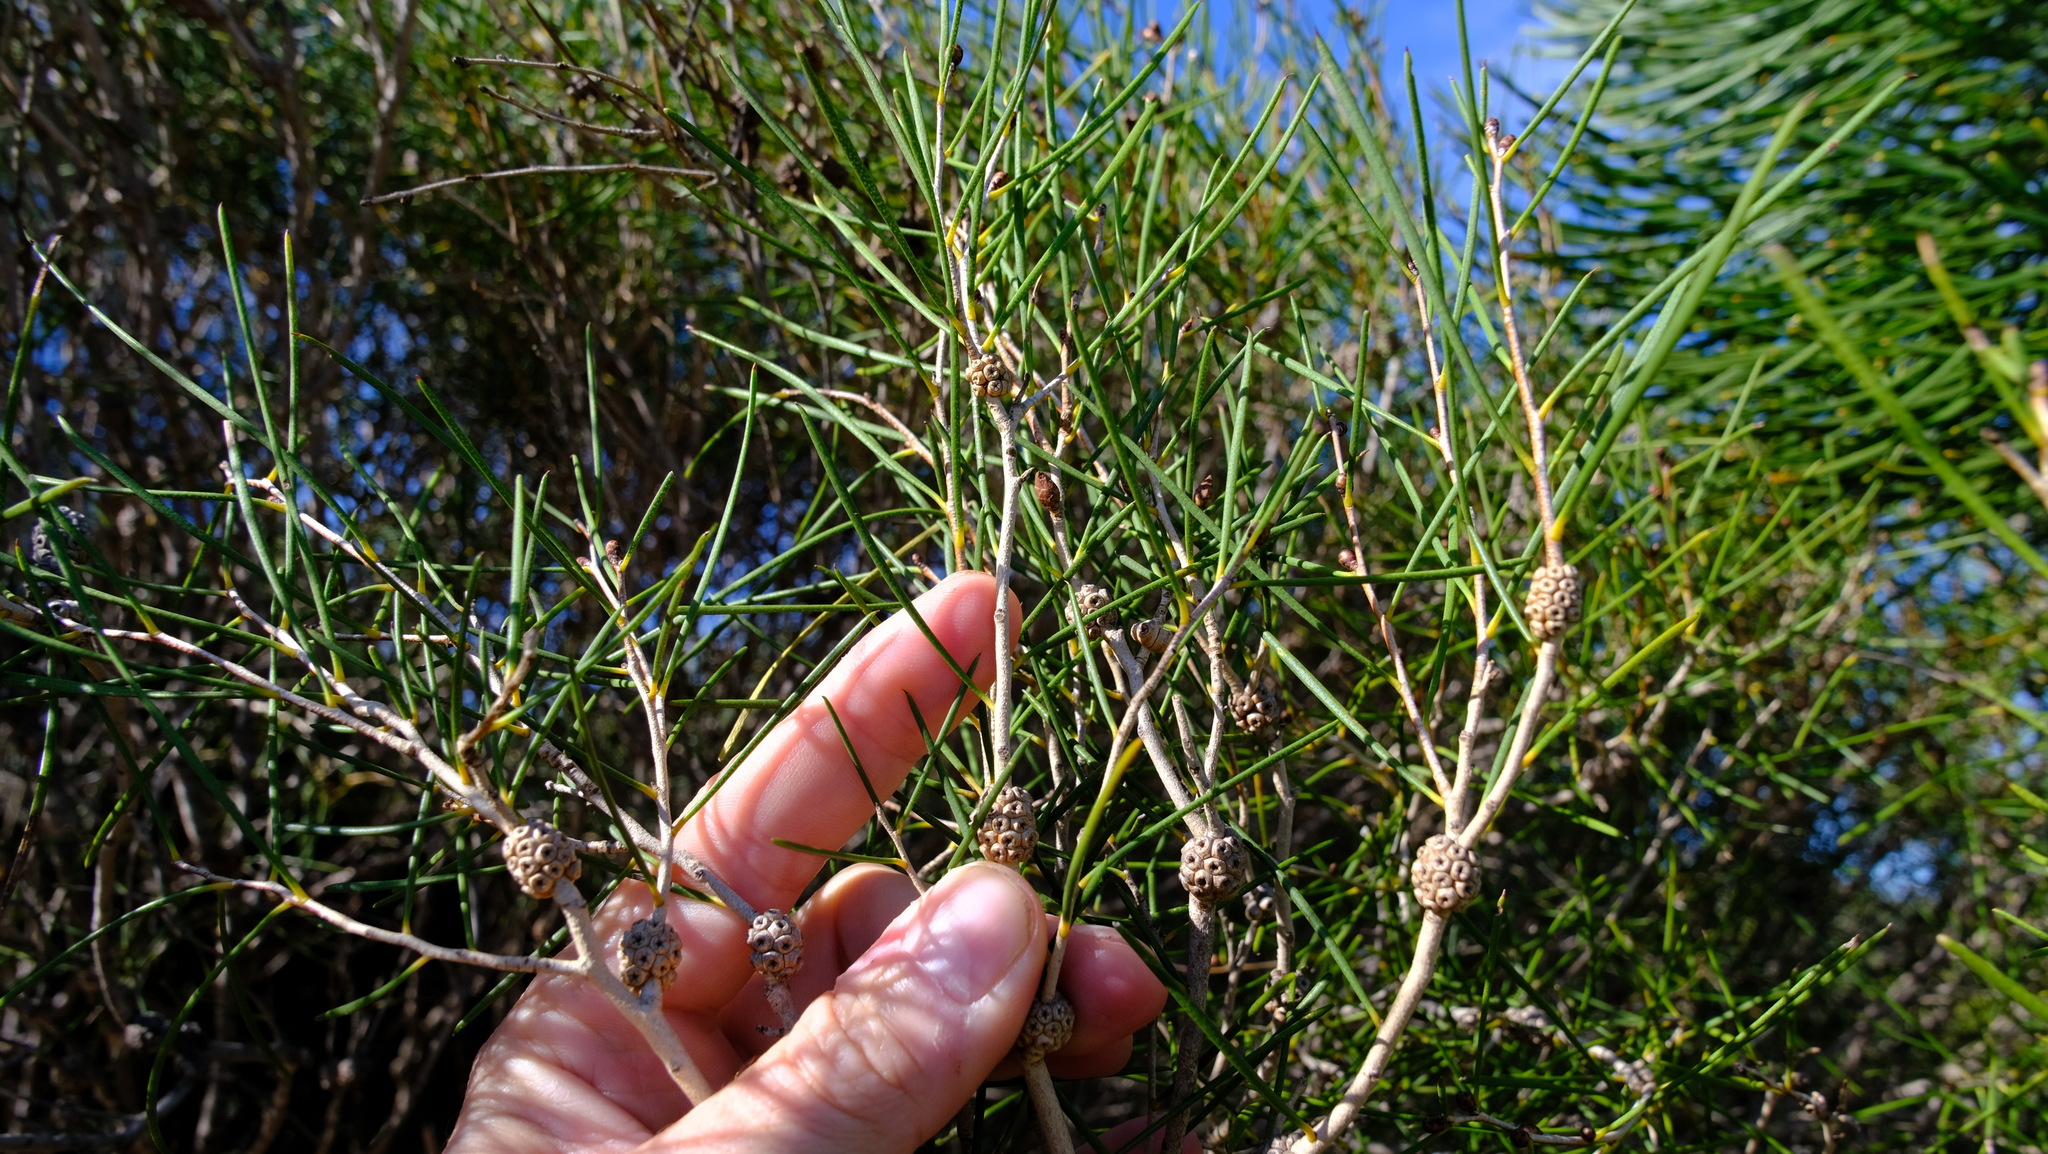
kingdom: Plantae
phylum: Tracheophyta
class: Magnoliopsida
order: Myrtales
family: Myrtaceae
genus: Melaleuca
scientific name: Melaleuca concreta
